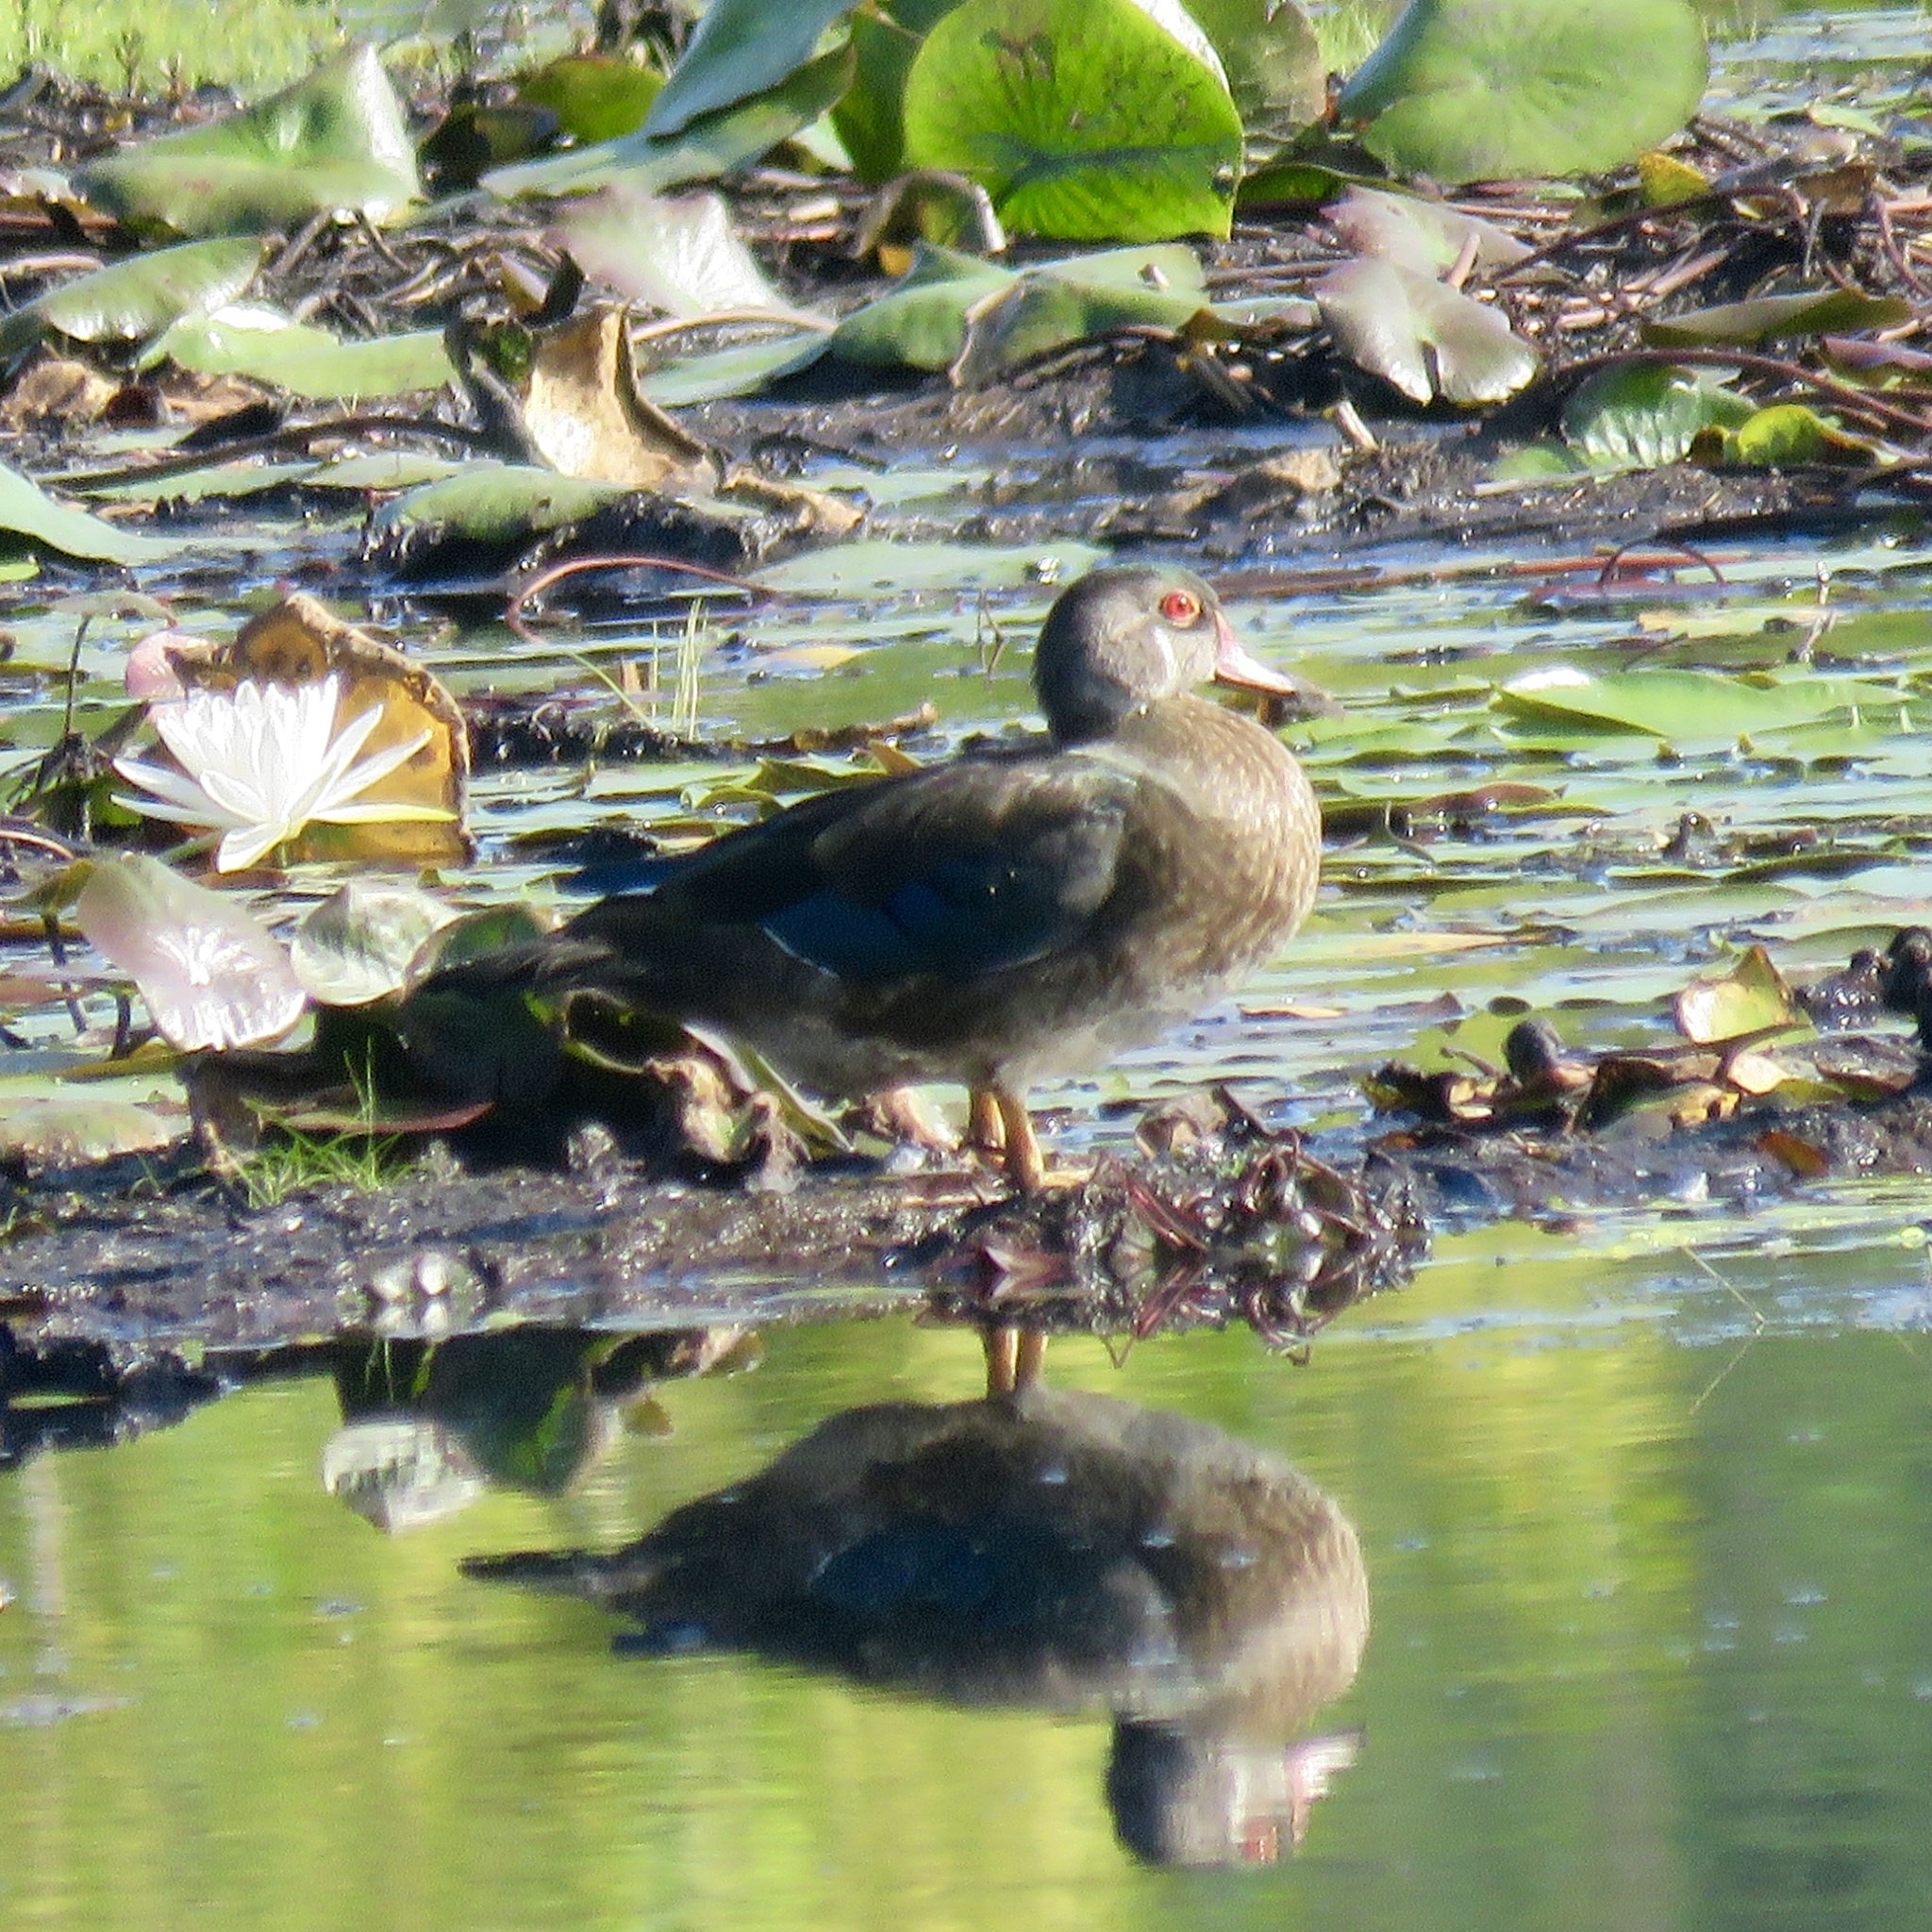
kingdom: Animalia
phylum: Chordata
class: Aves
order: Anseriformes
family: Anatidae
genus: Aix
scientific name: Aix sponsa
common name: Wood duck
